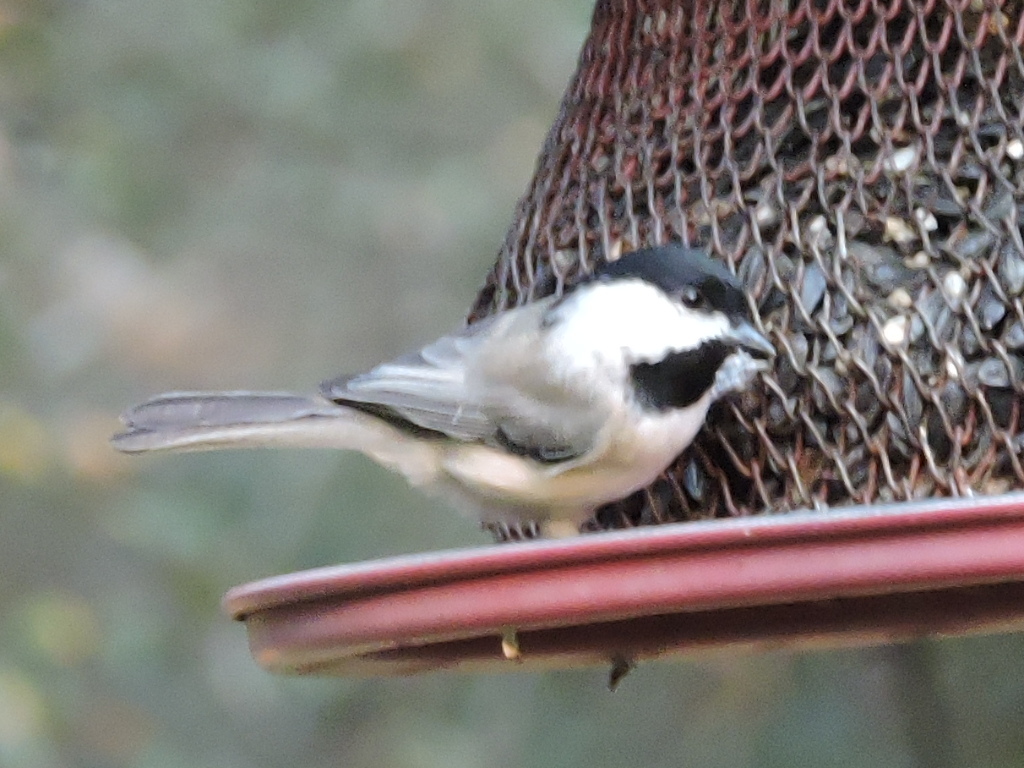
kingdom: Animalia
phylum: Chordata
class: Aves
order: Passeriformes
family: Paridae
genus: Poecile
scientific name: Poecile carolinensis
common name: Carolina chickadee
